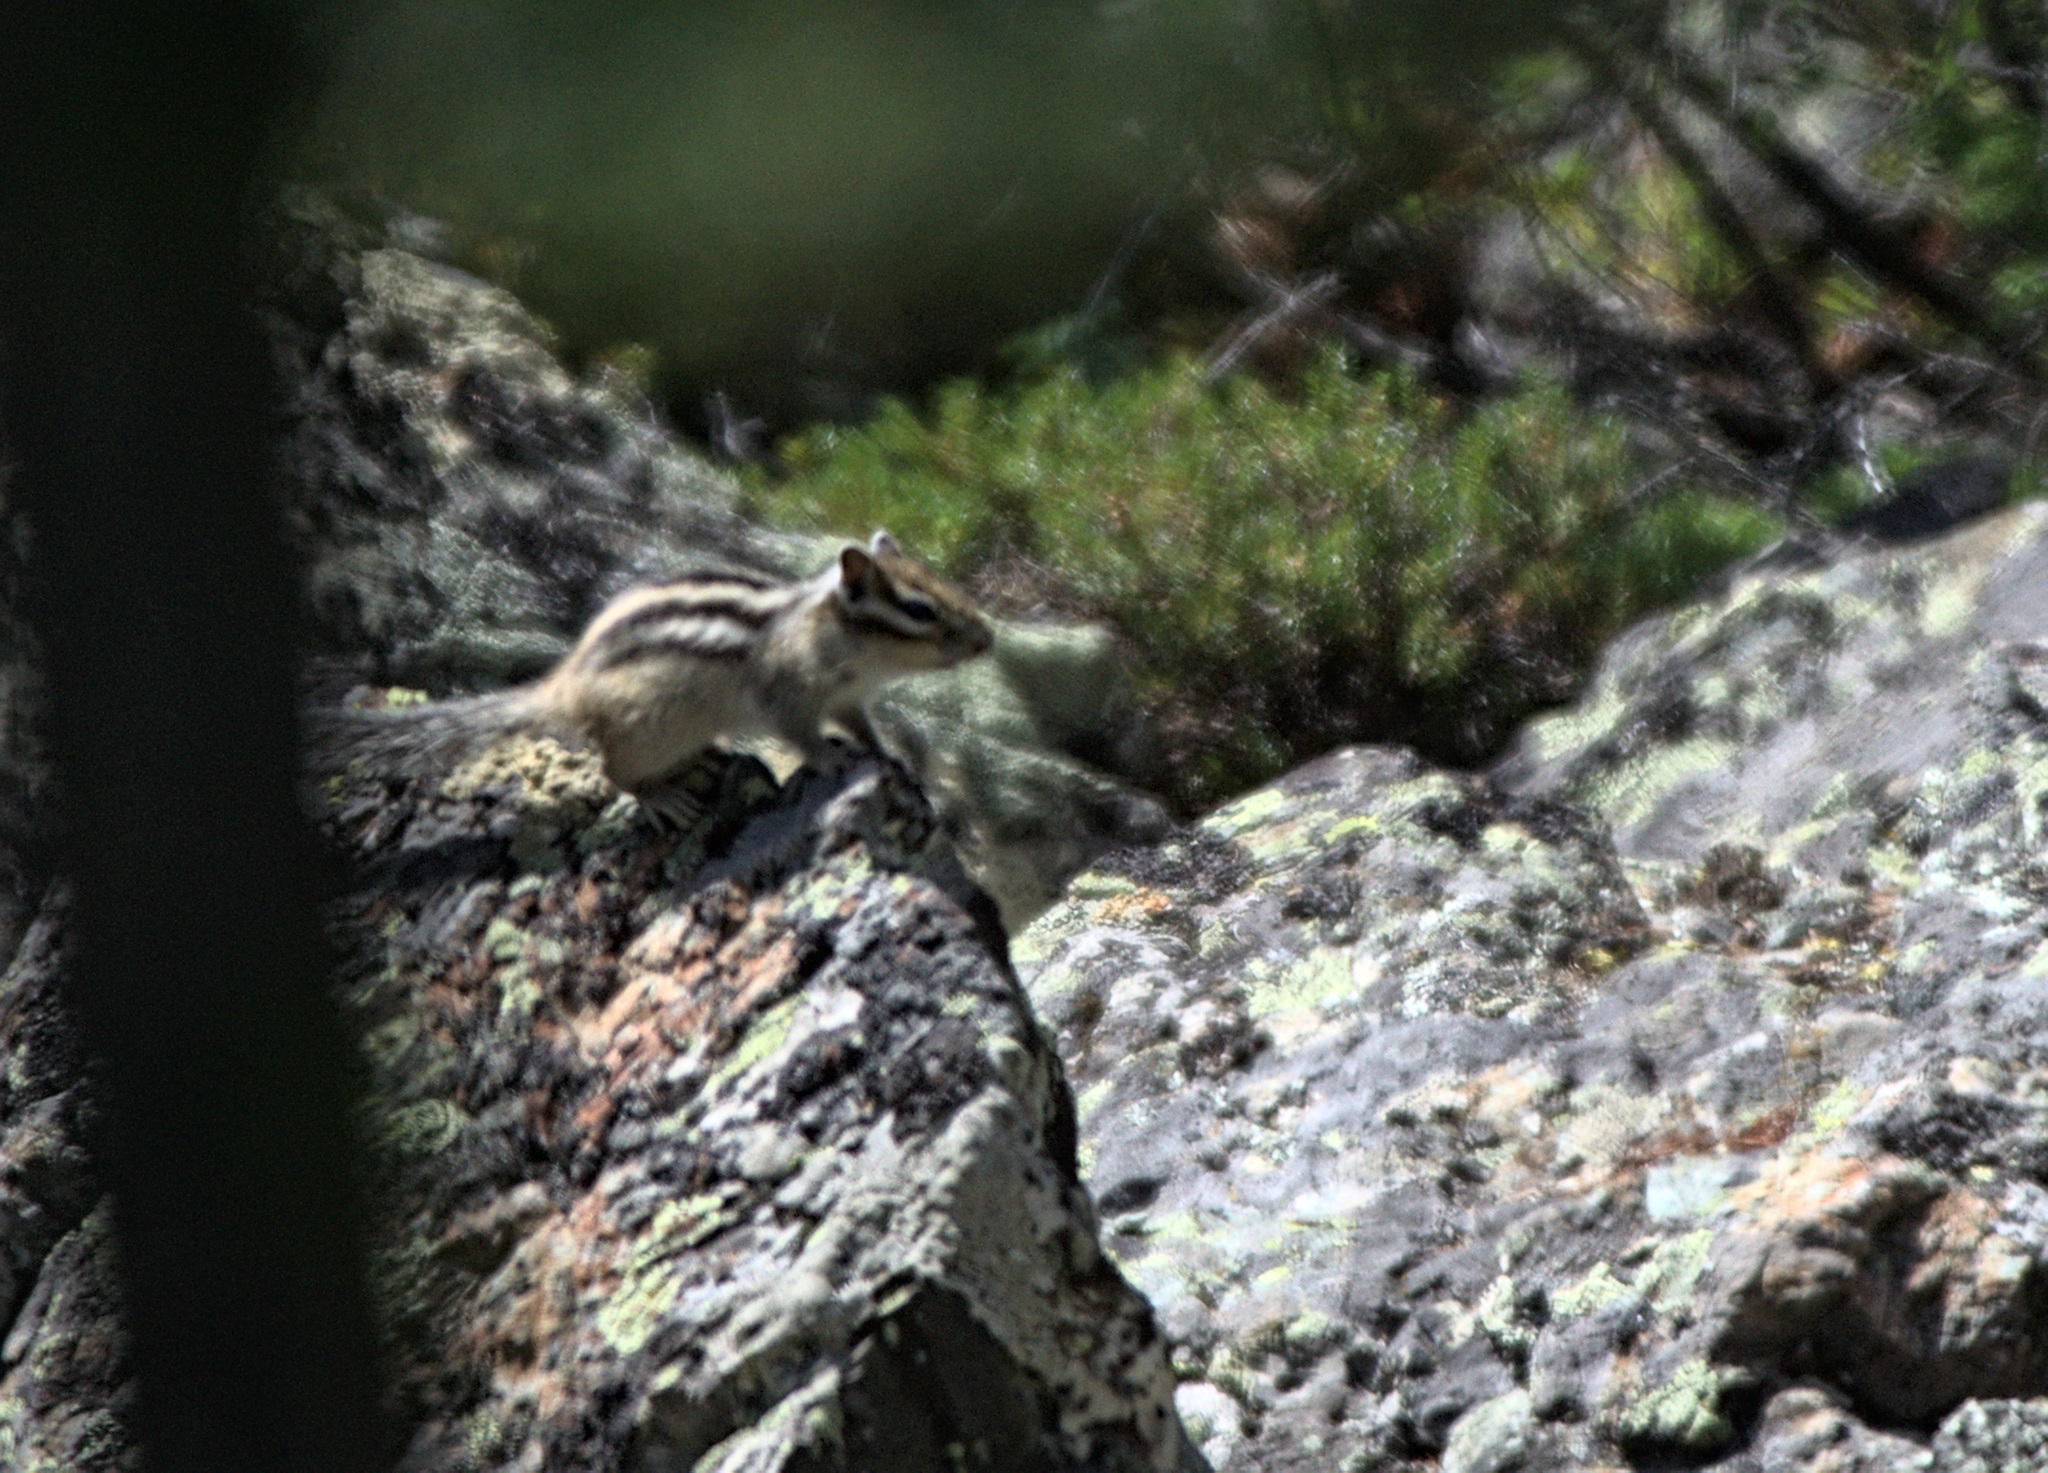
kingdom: Animalia
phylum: Chordata
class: Mammalia
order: Rodentia
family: Sciuridae
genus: Tamias
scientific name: Tamias sibiricus
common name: Siberian chipmunk
